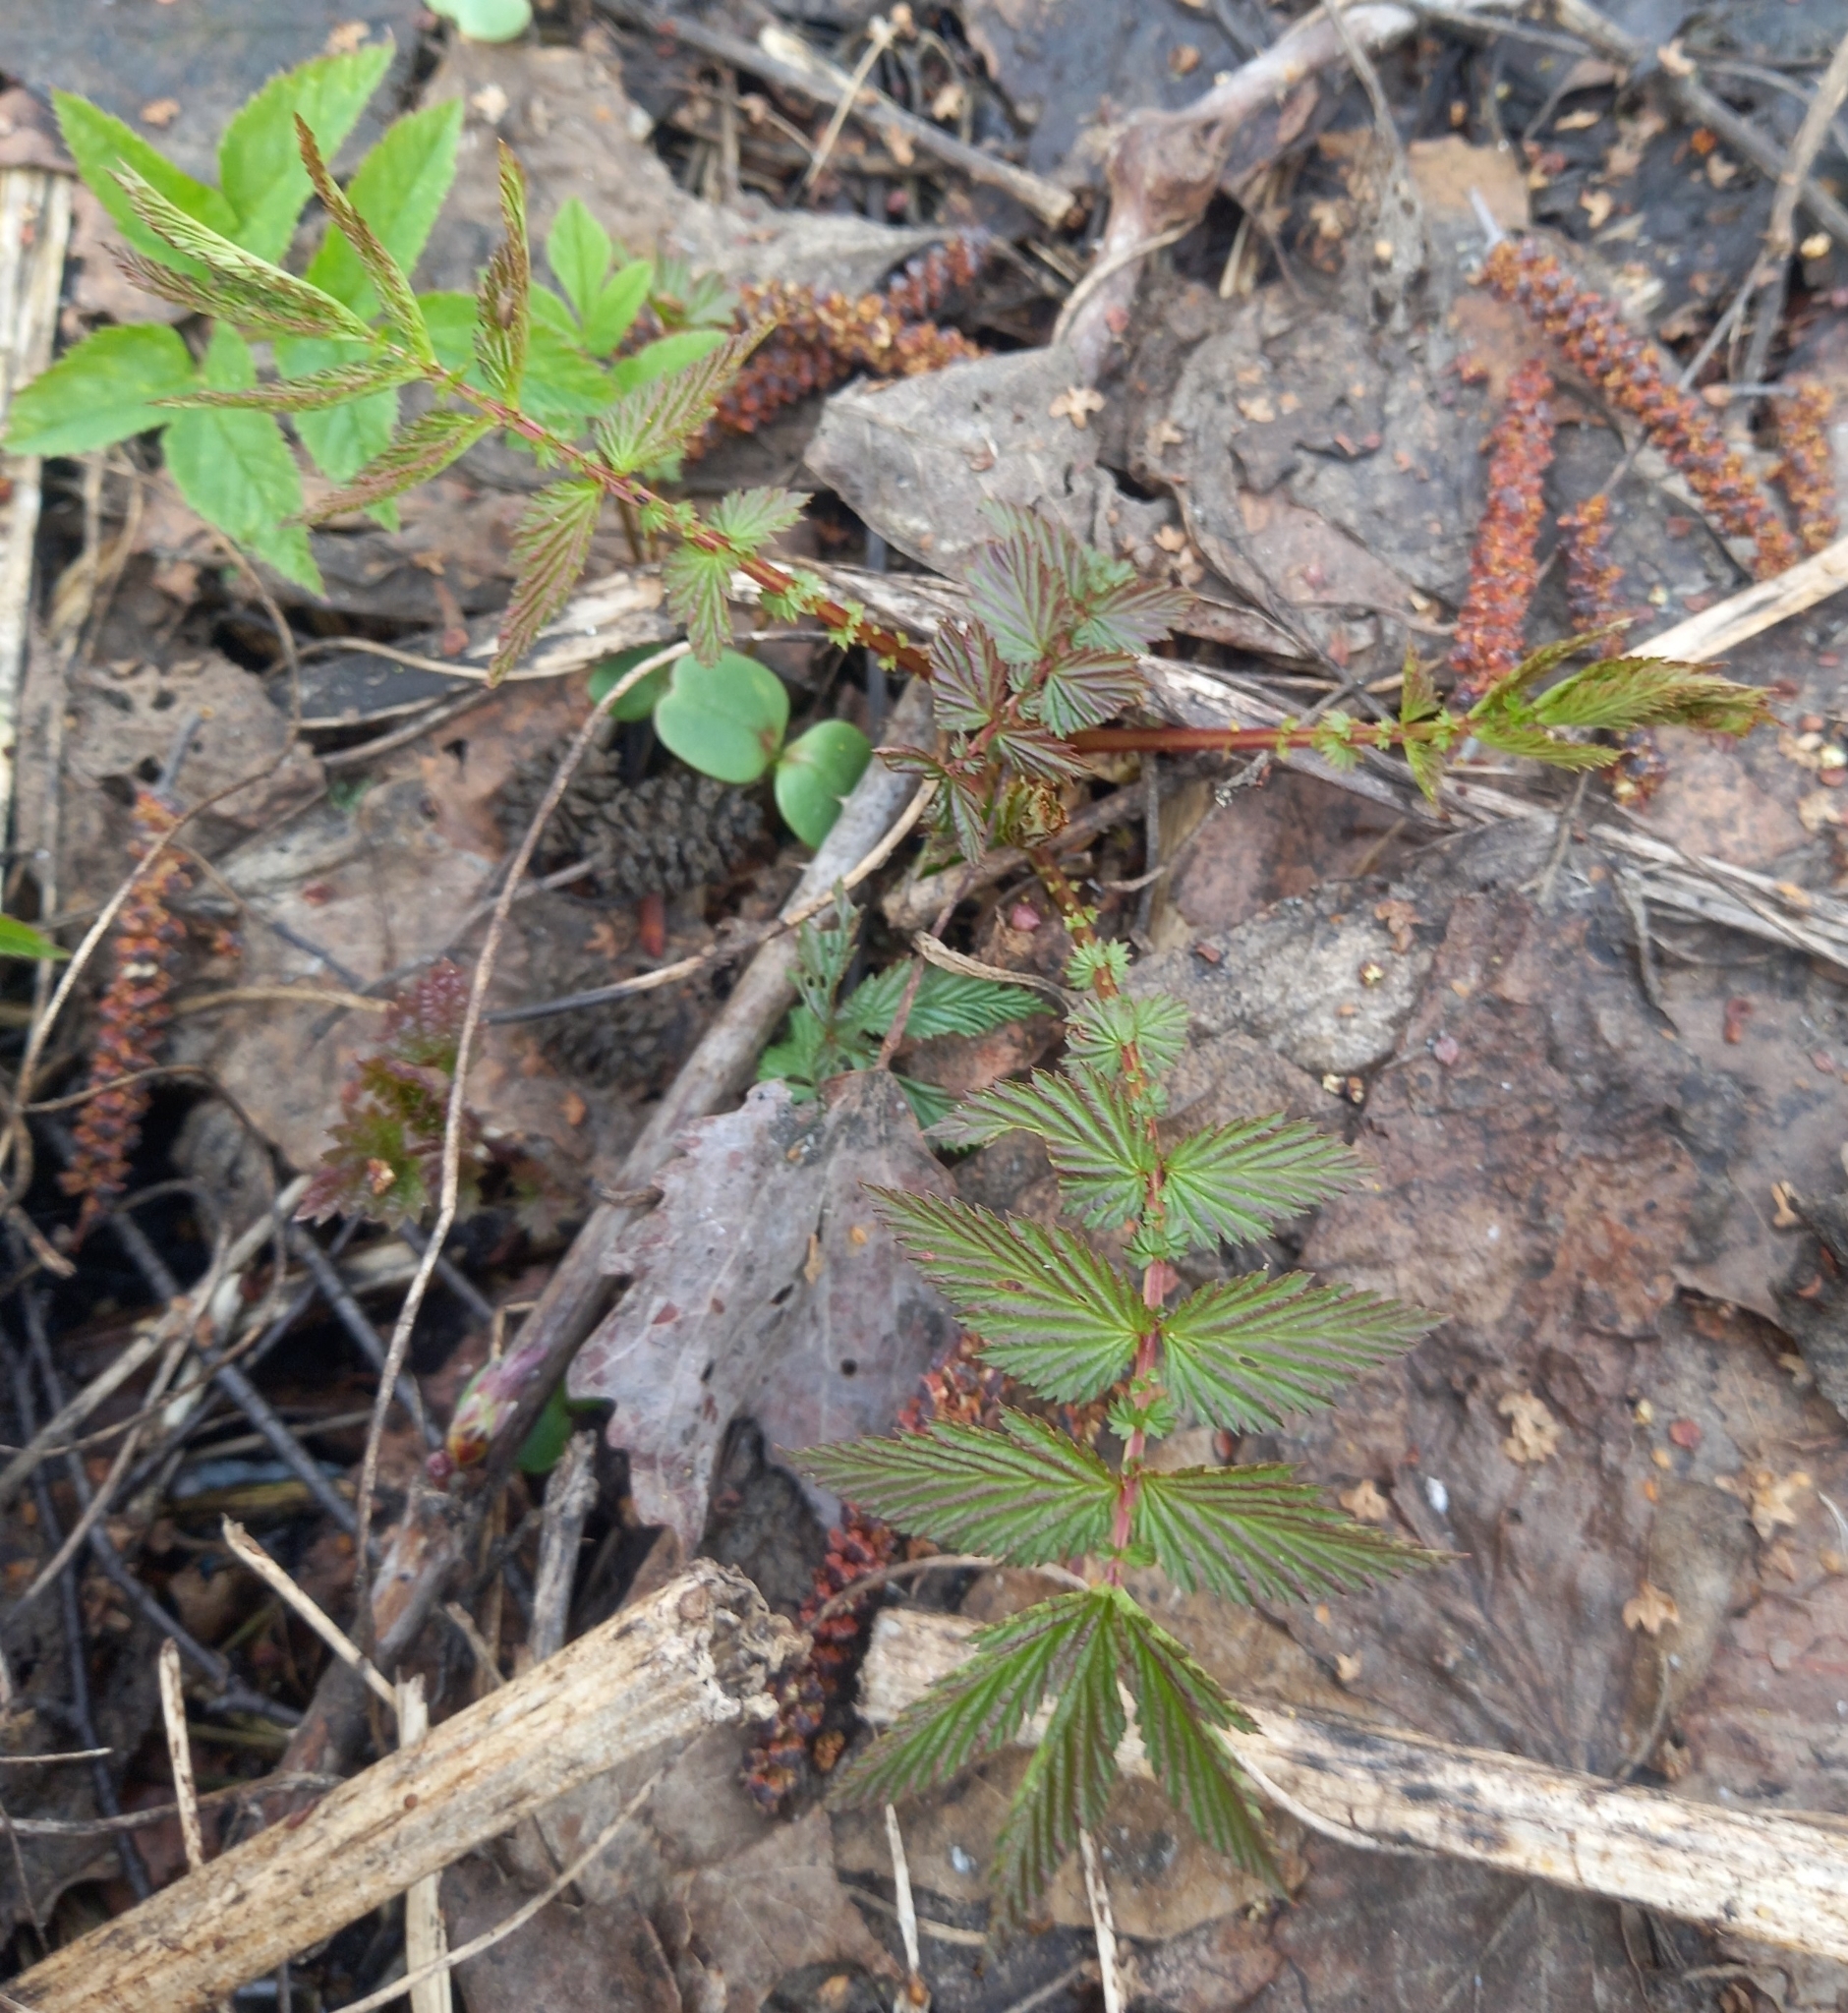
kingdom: Plantae
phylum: Tracheophyta
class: Magnoliopsida
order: Rosales
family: Rosaceae
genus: Filipendula
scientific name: Filipendula ulmaria
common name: Meadowsweet
